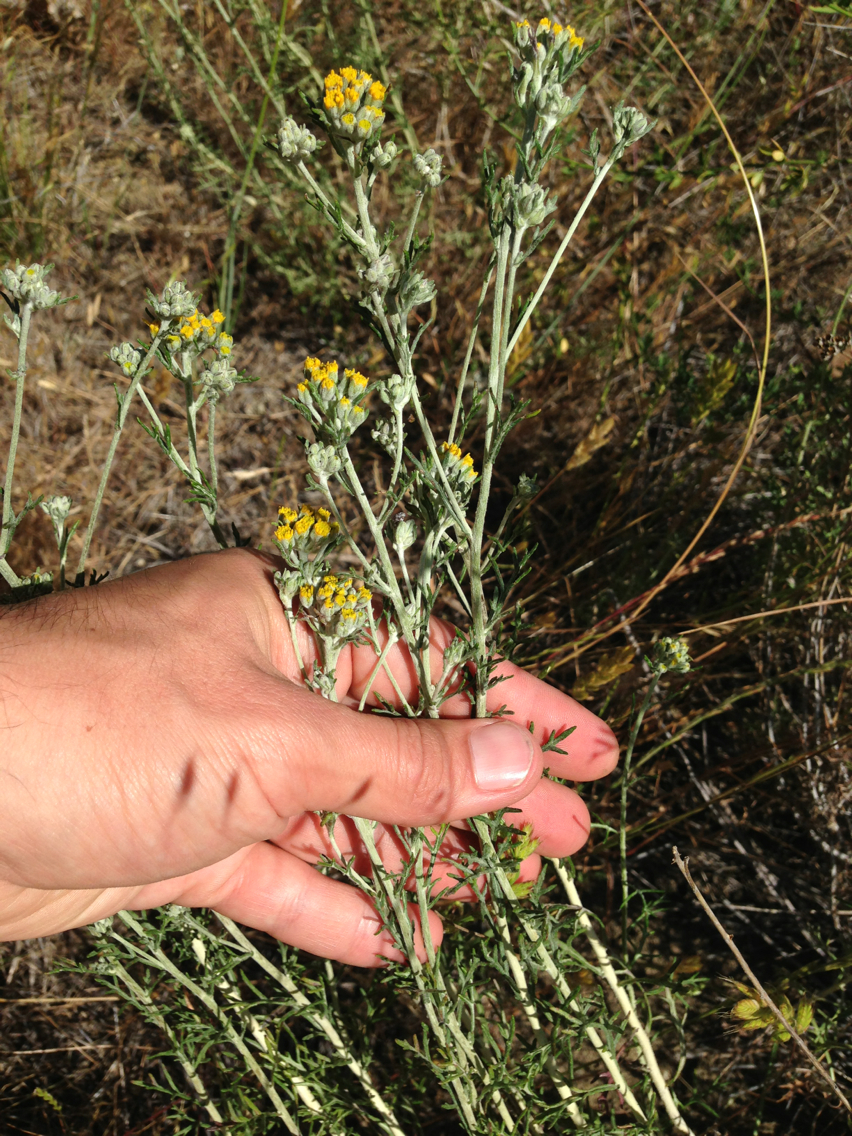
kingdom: Plantae
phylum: Tracheophyta
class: Magnoliopsida
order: Asterales
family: Asteraceae
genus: Eriophyllum
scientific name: Eriophyllum confertiflorum
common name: Golden-yarrow
